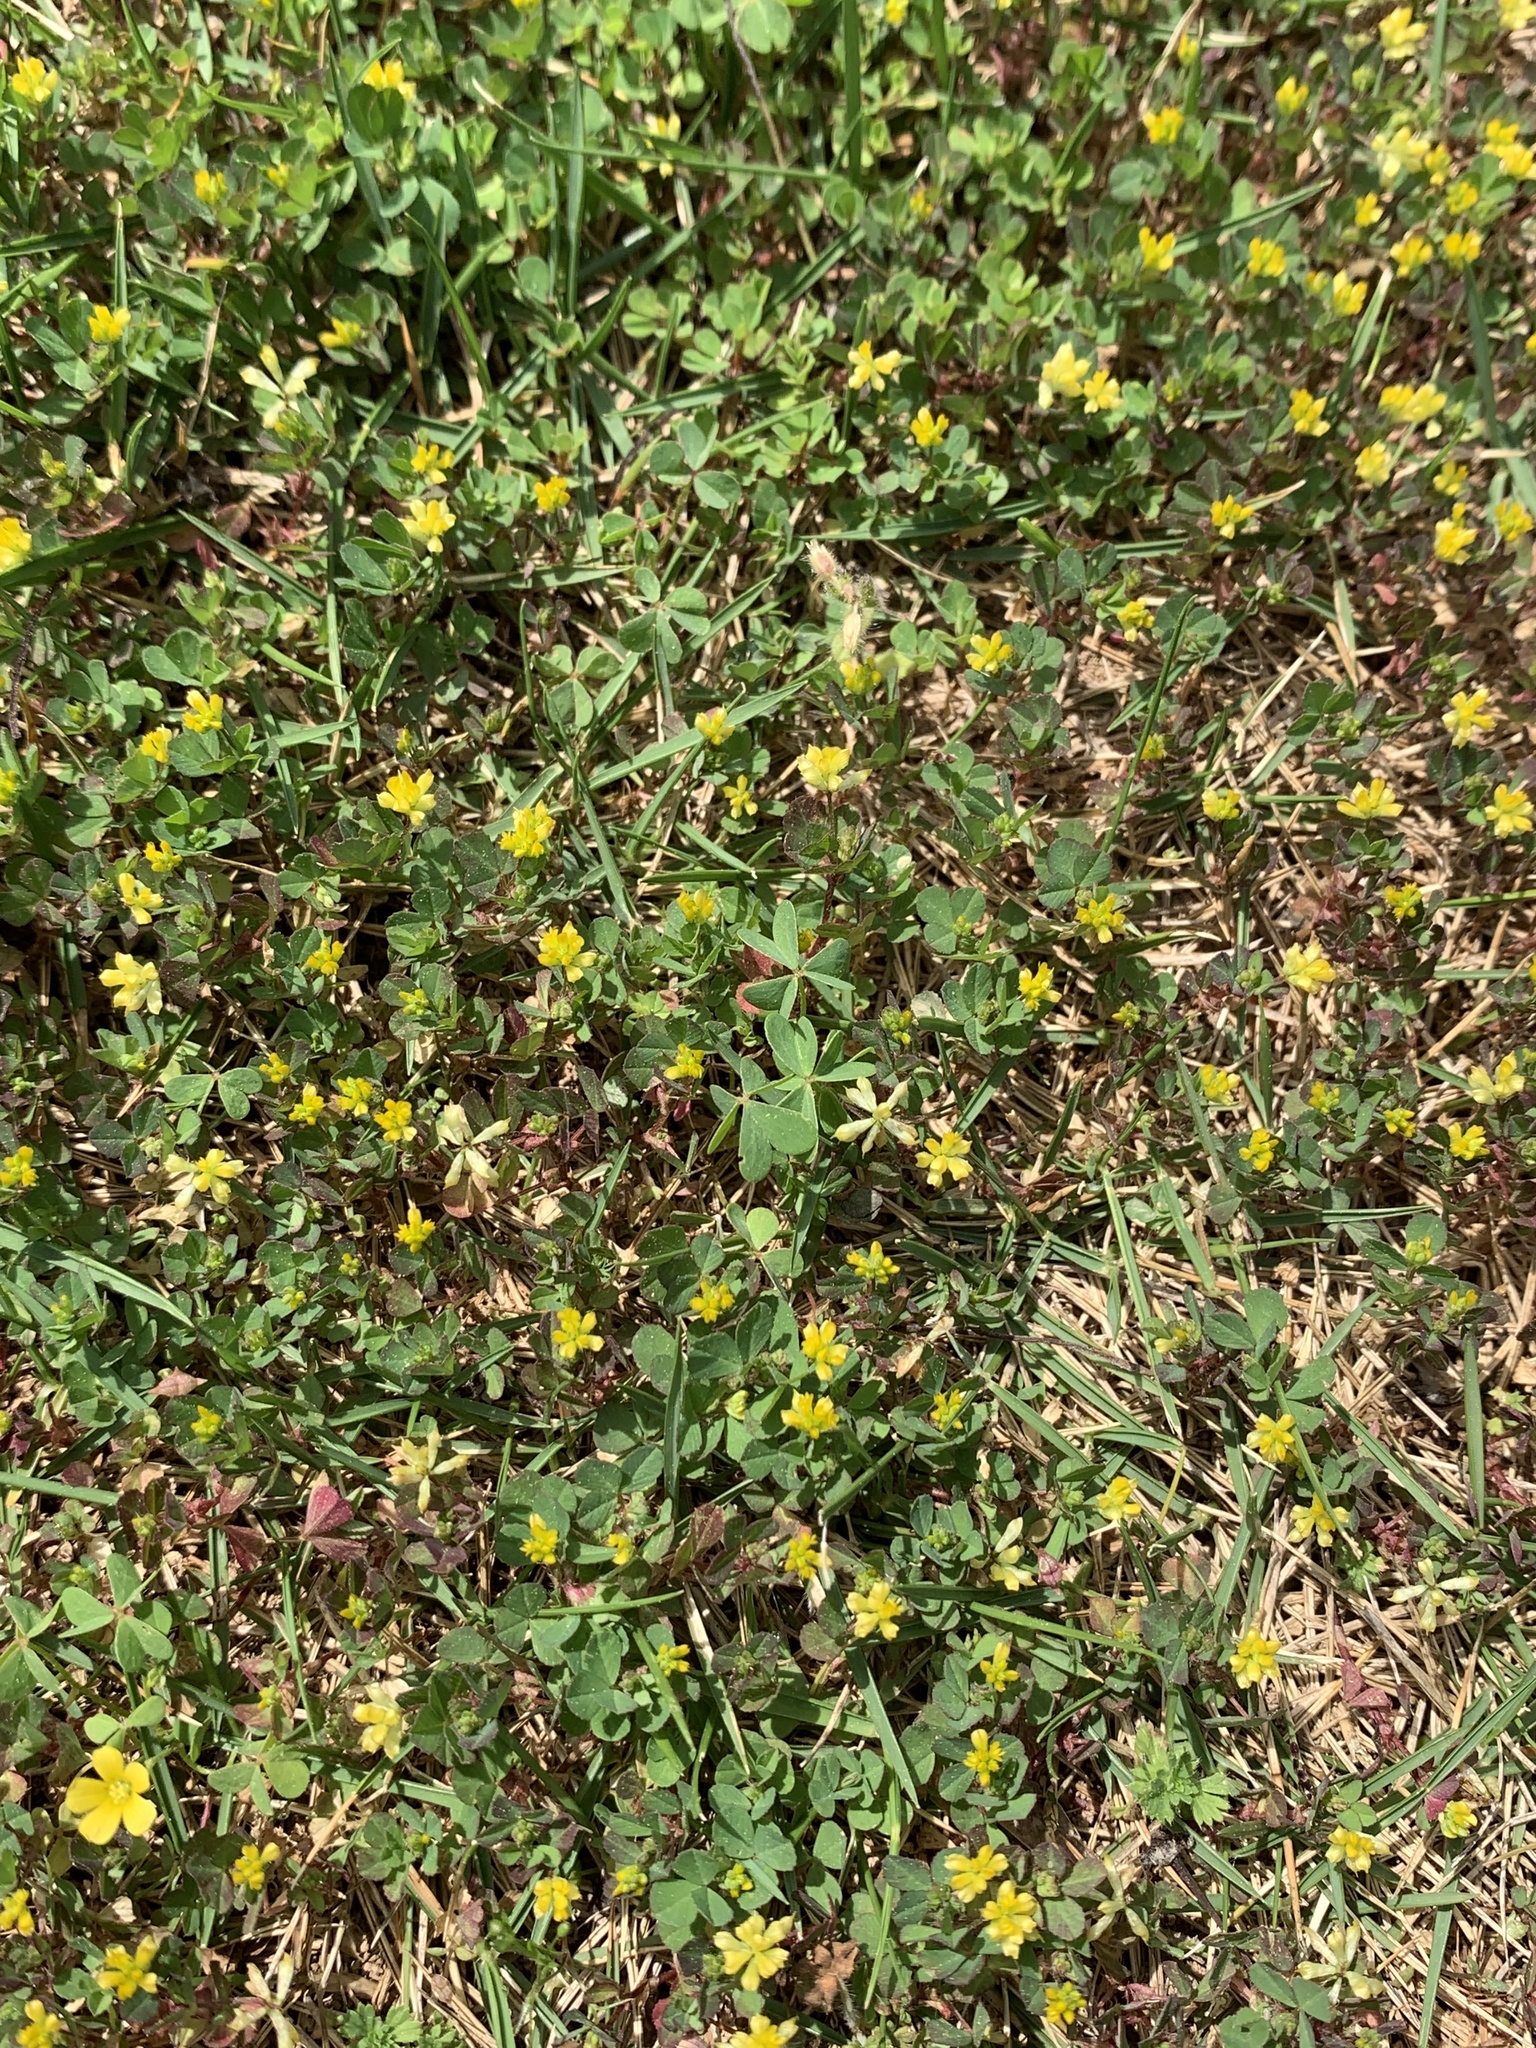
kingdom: Plantae
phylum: Tracheophyta
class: Magnoliopsida
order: Fabales
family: Fabaceae
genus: Trifolium
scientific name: Trifolium dubium
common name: Suckling clover
